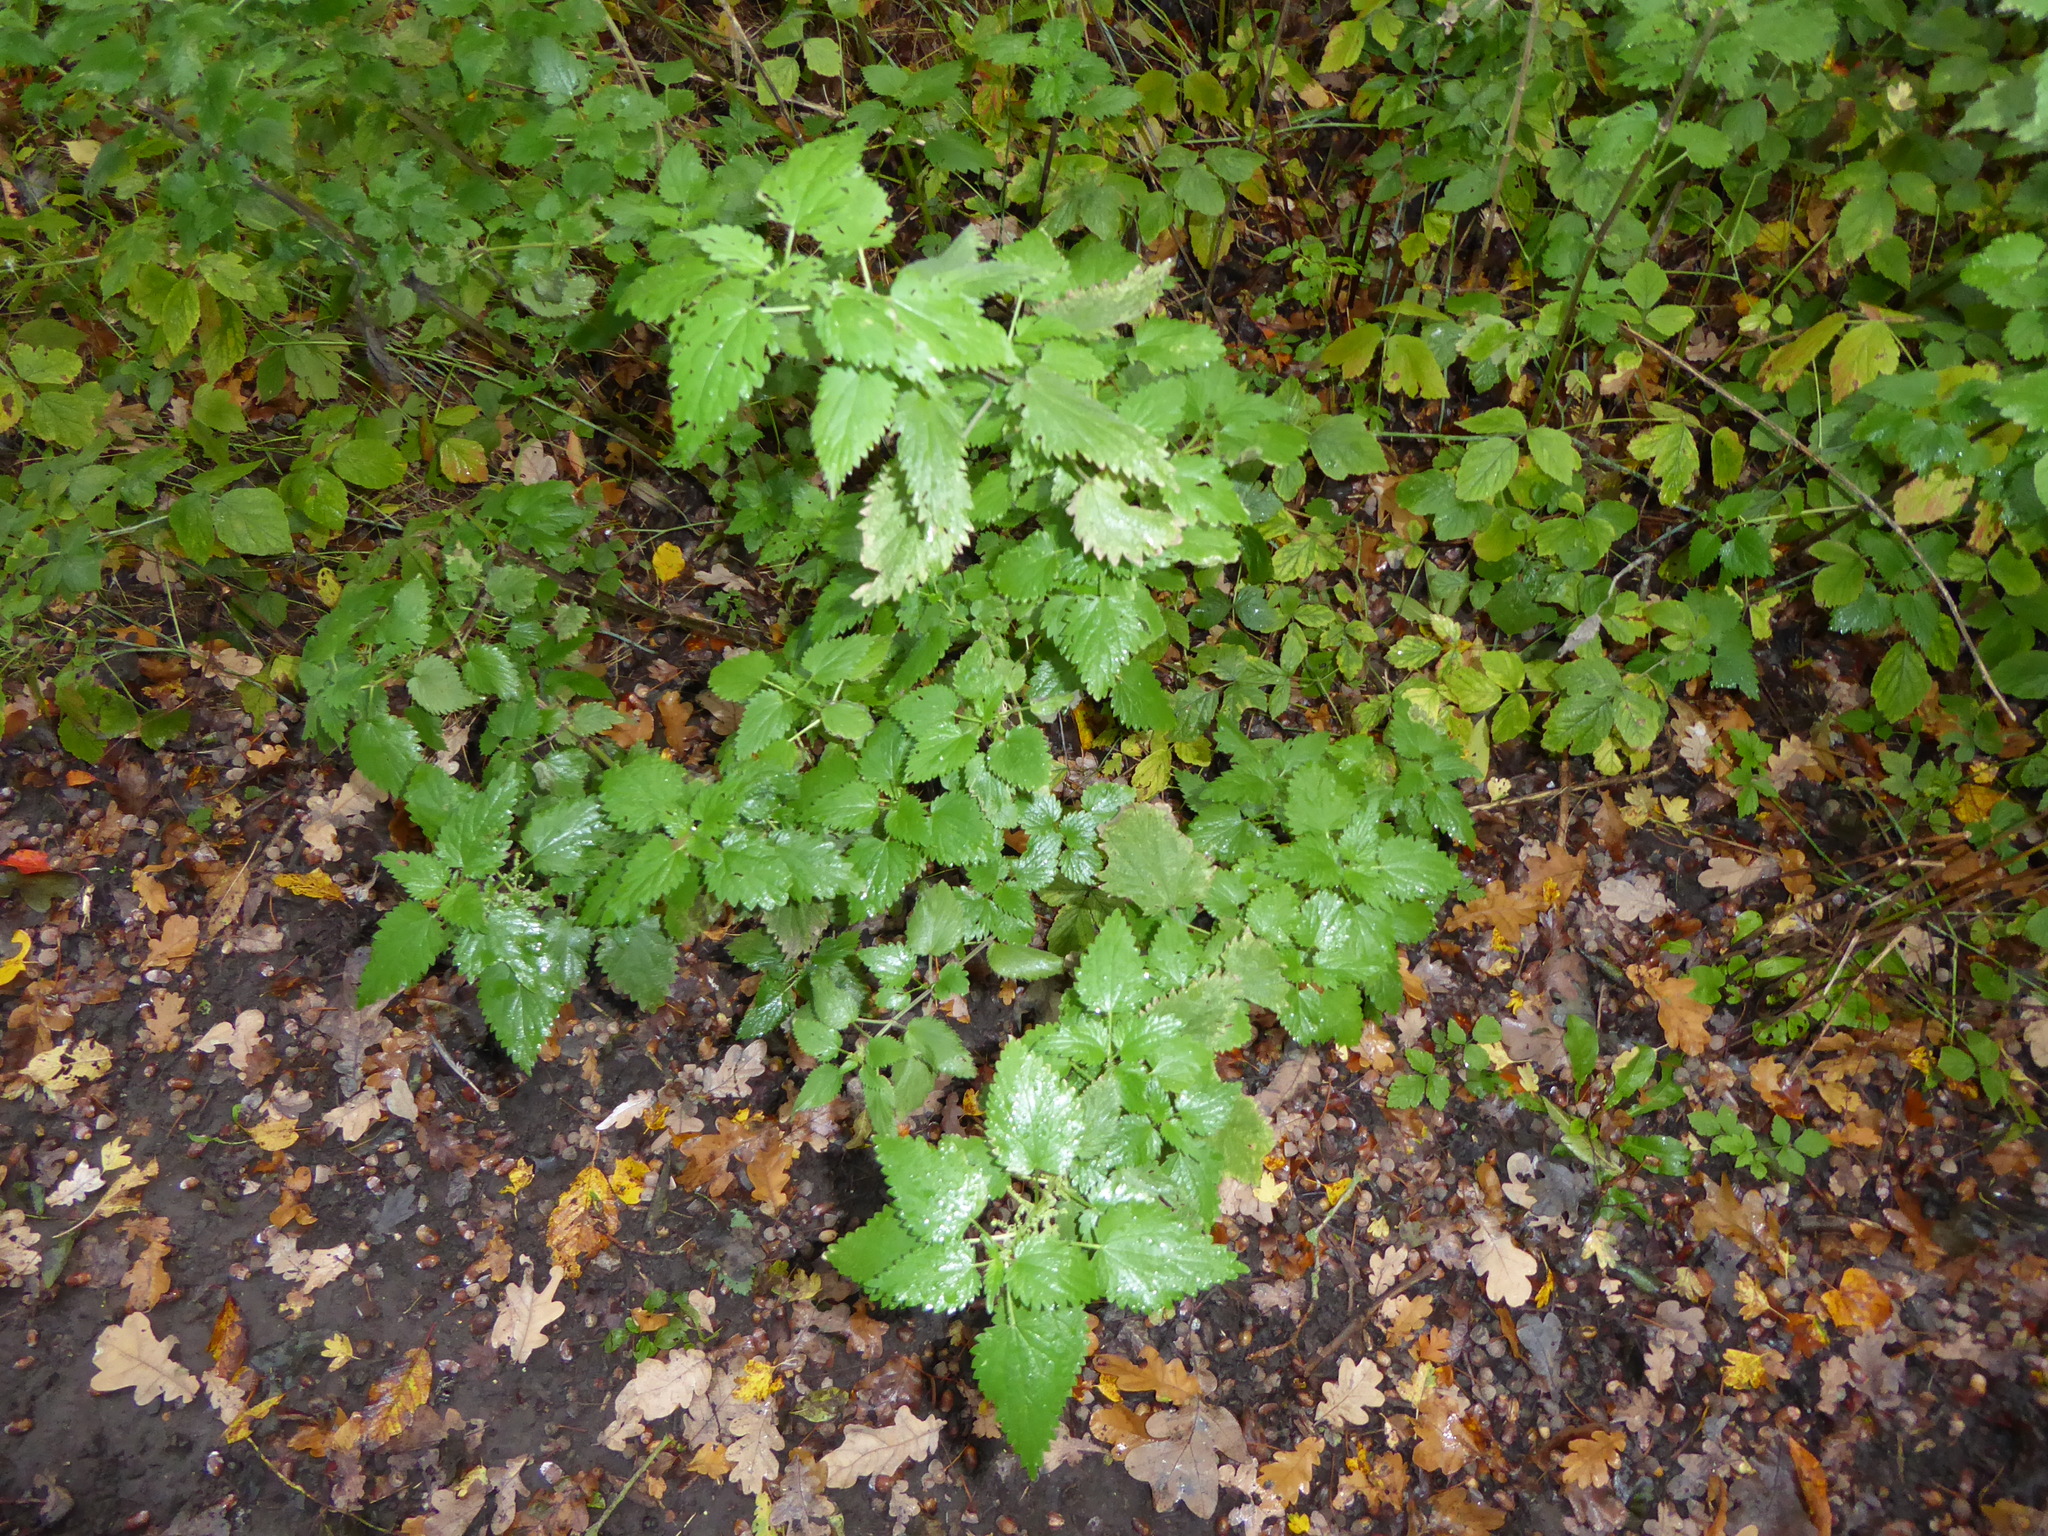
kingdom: Plantae
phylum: Tracheophyta
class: Magnoliopsida
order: Rosales
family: Urticaceae
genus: Urtica
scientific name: Urtica dioica
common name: Common nettle
